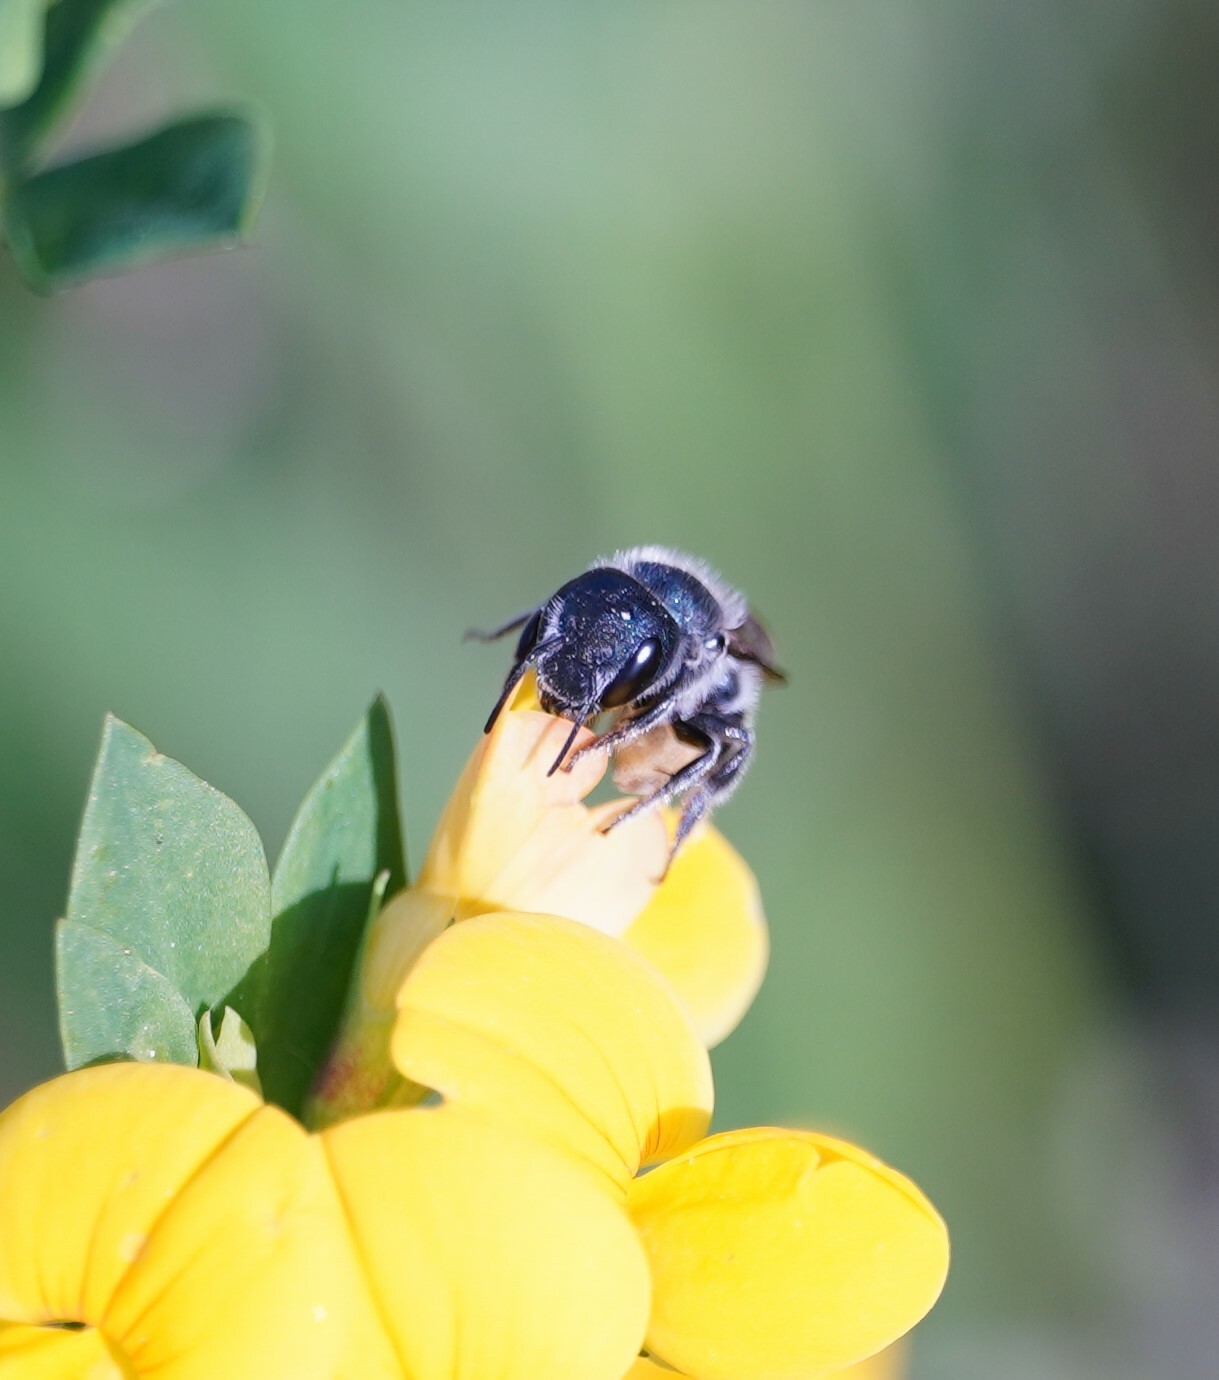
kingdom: Animalia
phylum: Arthropoda
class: Insecta
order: Hymenoptera
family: Megachilidae
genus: Osmia
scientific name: Osmia caerulescens
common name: Blue mason bee
